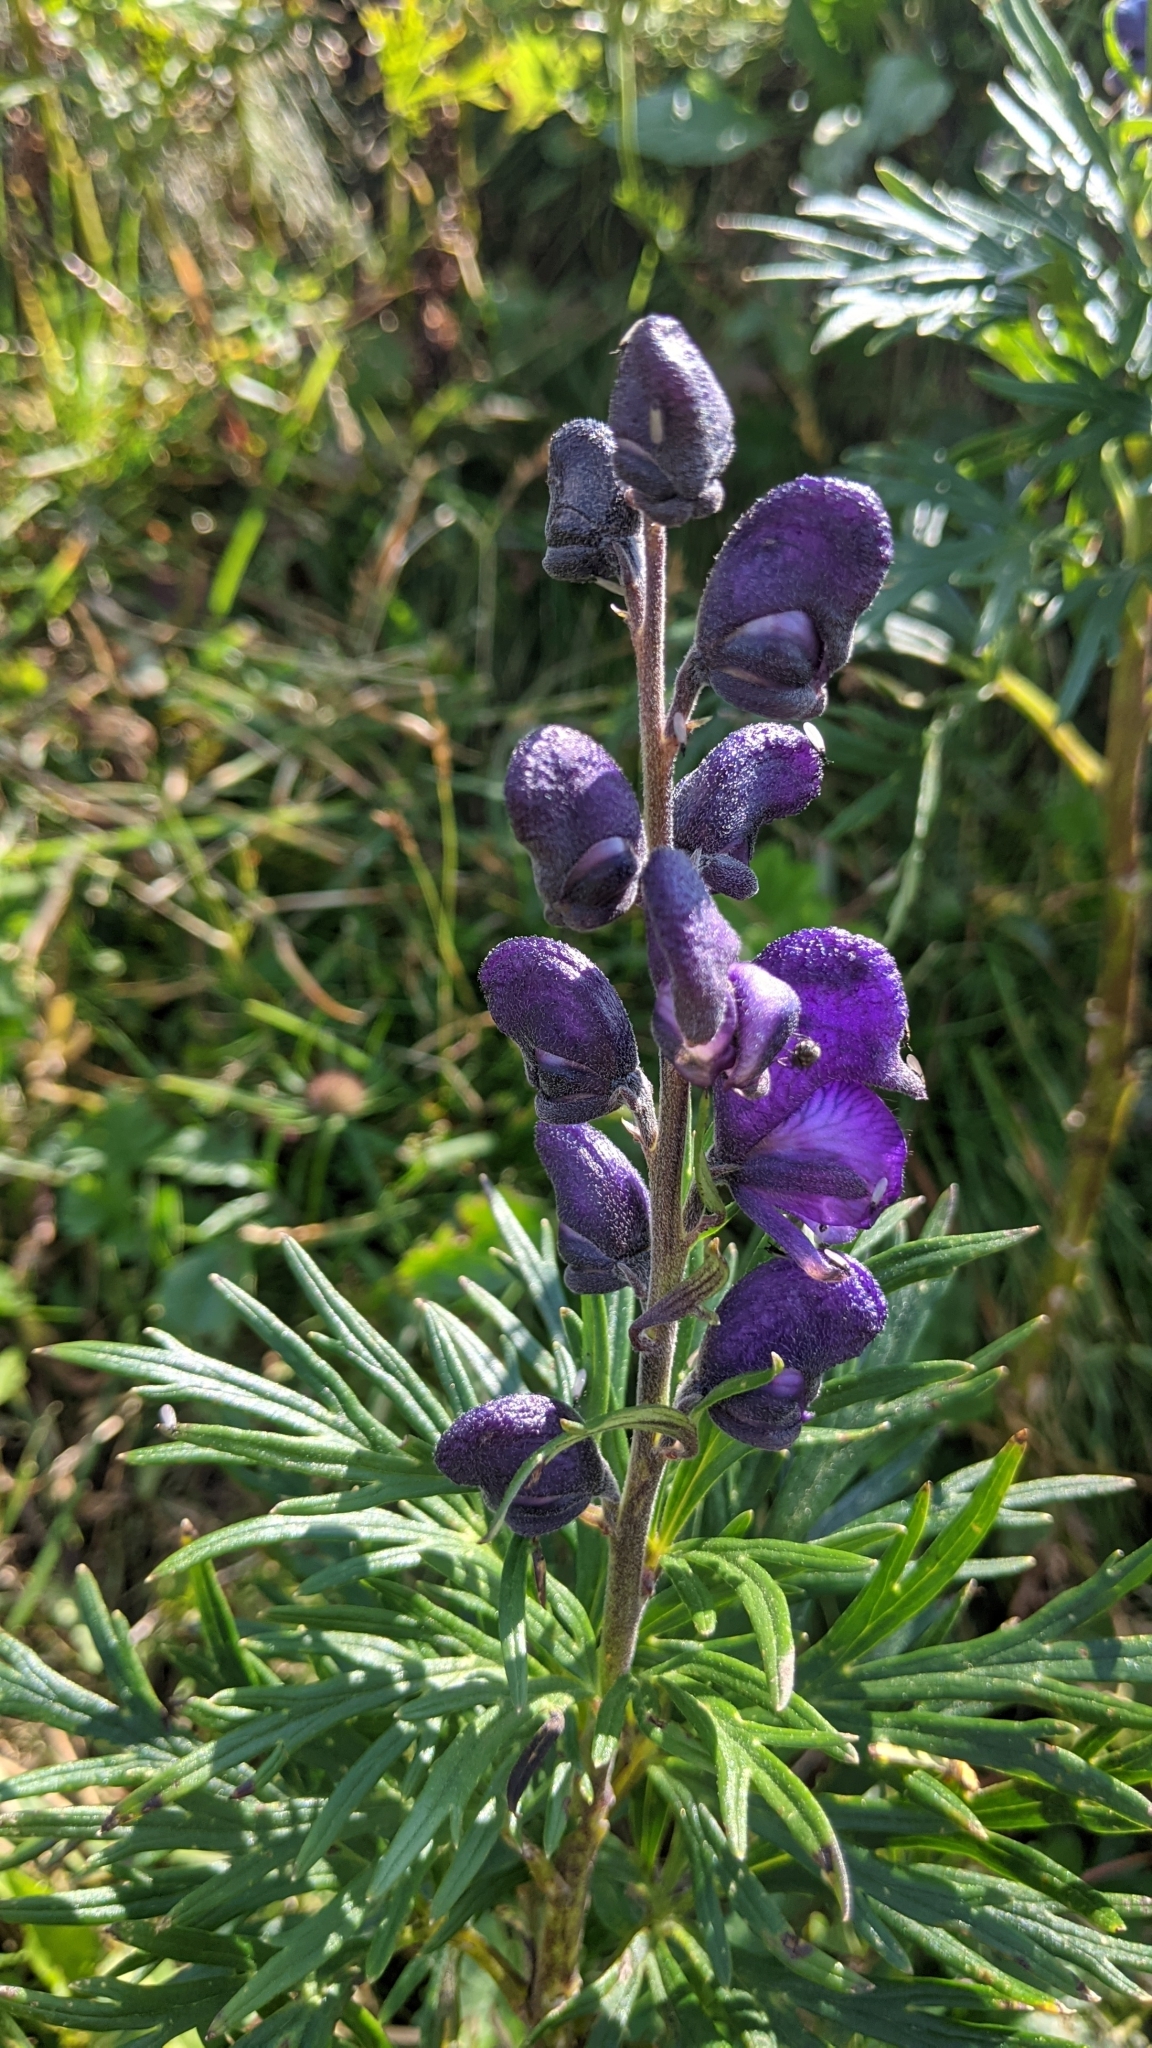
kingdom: Plantae
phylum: Tracheophyta
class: Magnoliopsida
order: Ranunculales
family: Ranunculaceae
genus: Aconitum
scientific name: Aconitum napellus
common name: Garden monkshood
